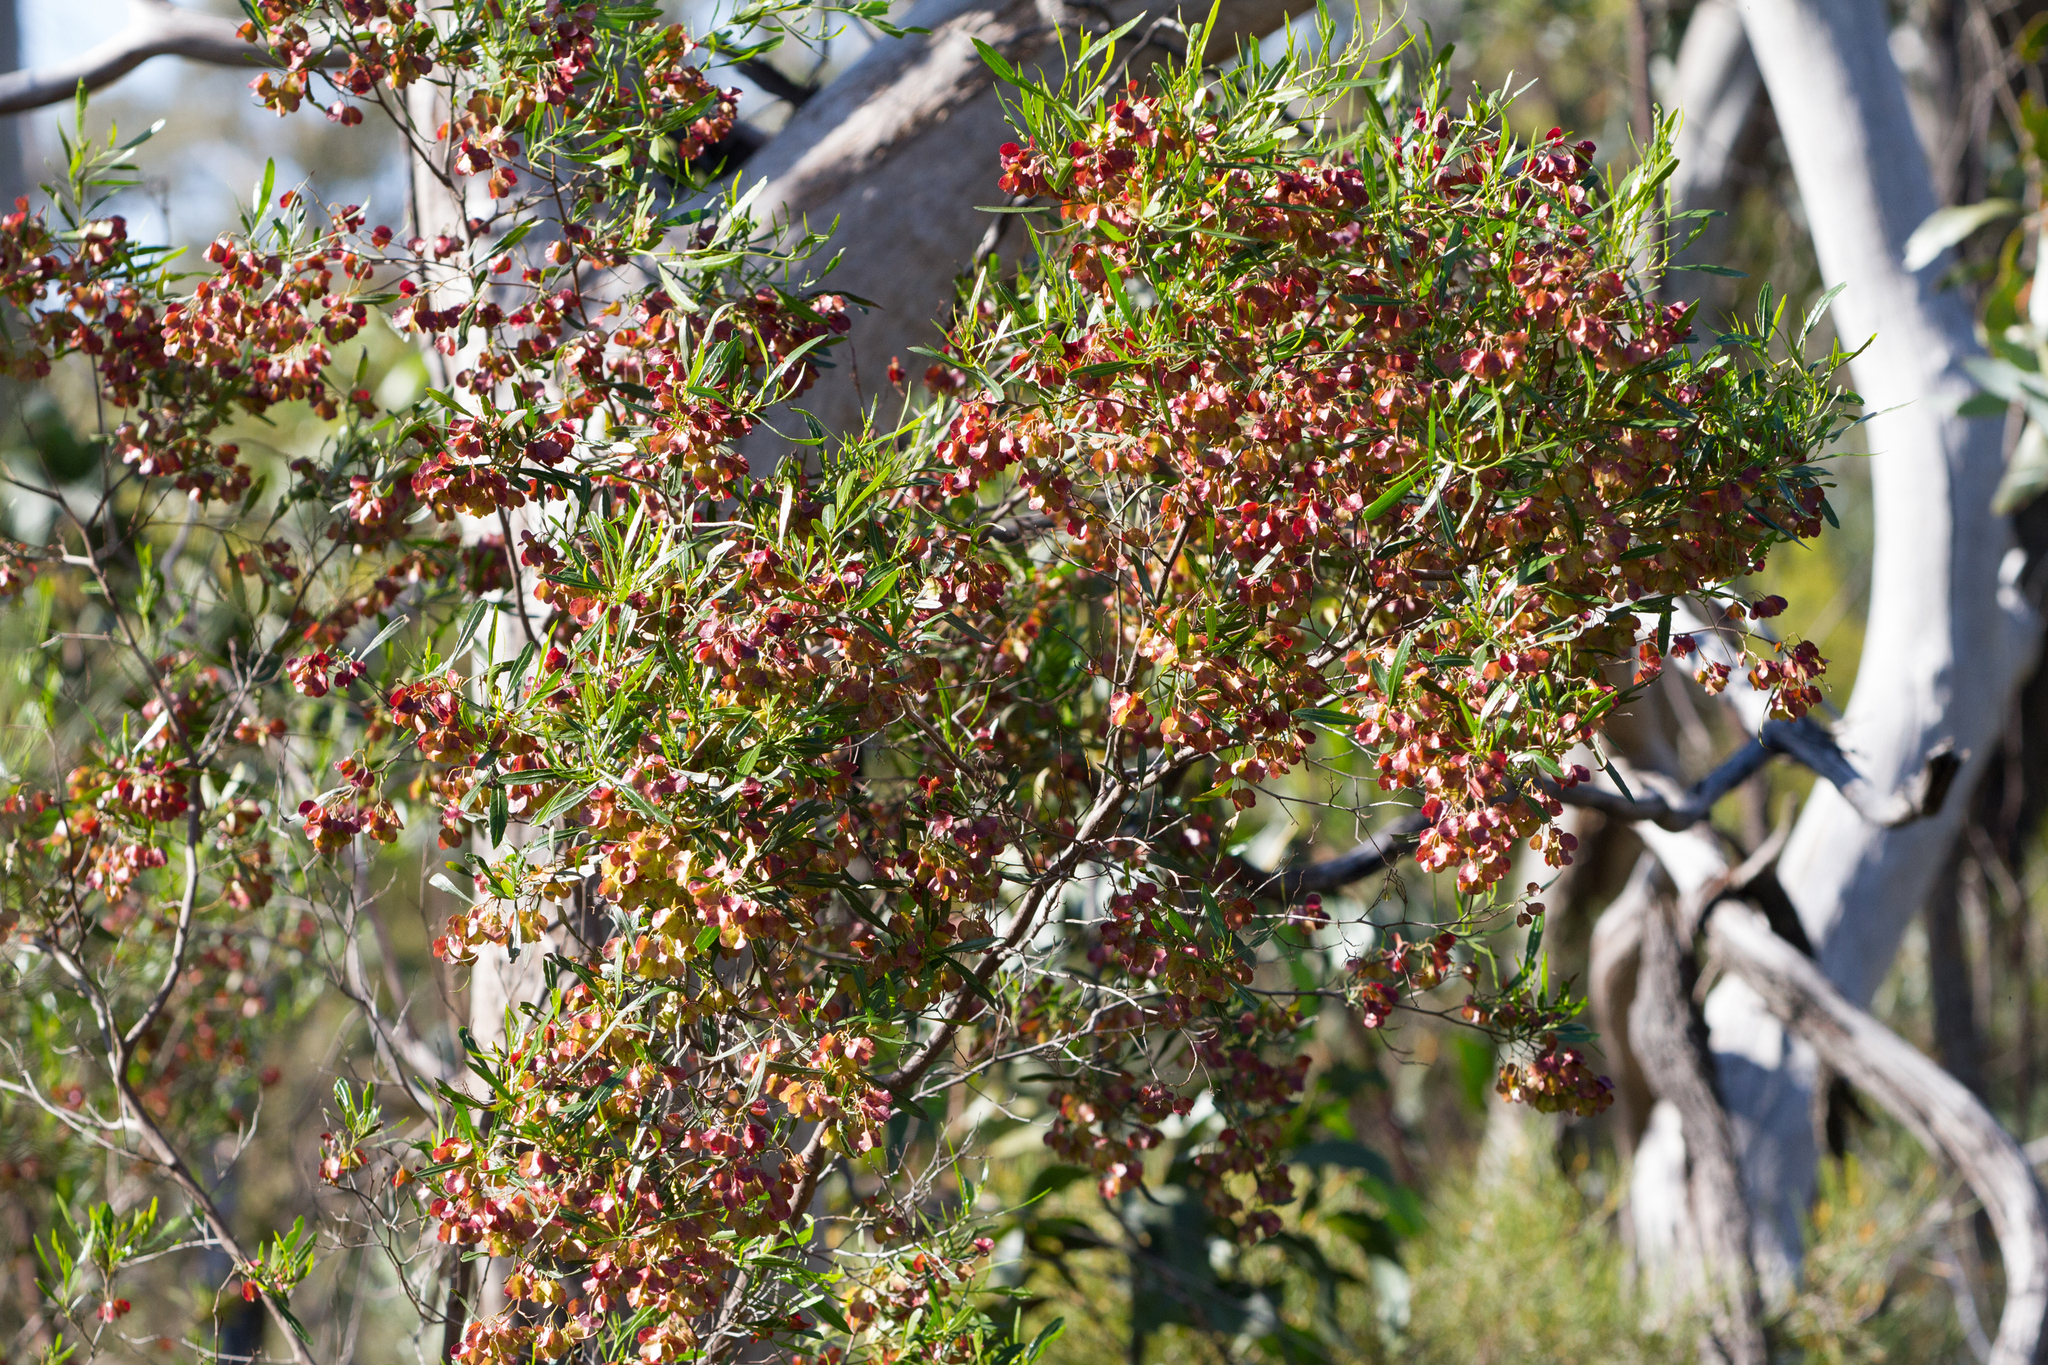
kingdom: Plantae
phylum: Tracheophyta
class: Magnoliopsida
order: Sapindales
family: Sapindaceae
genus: Dodonaea
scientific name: Dodonaea viscosa
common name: Hopbush
